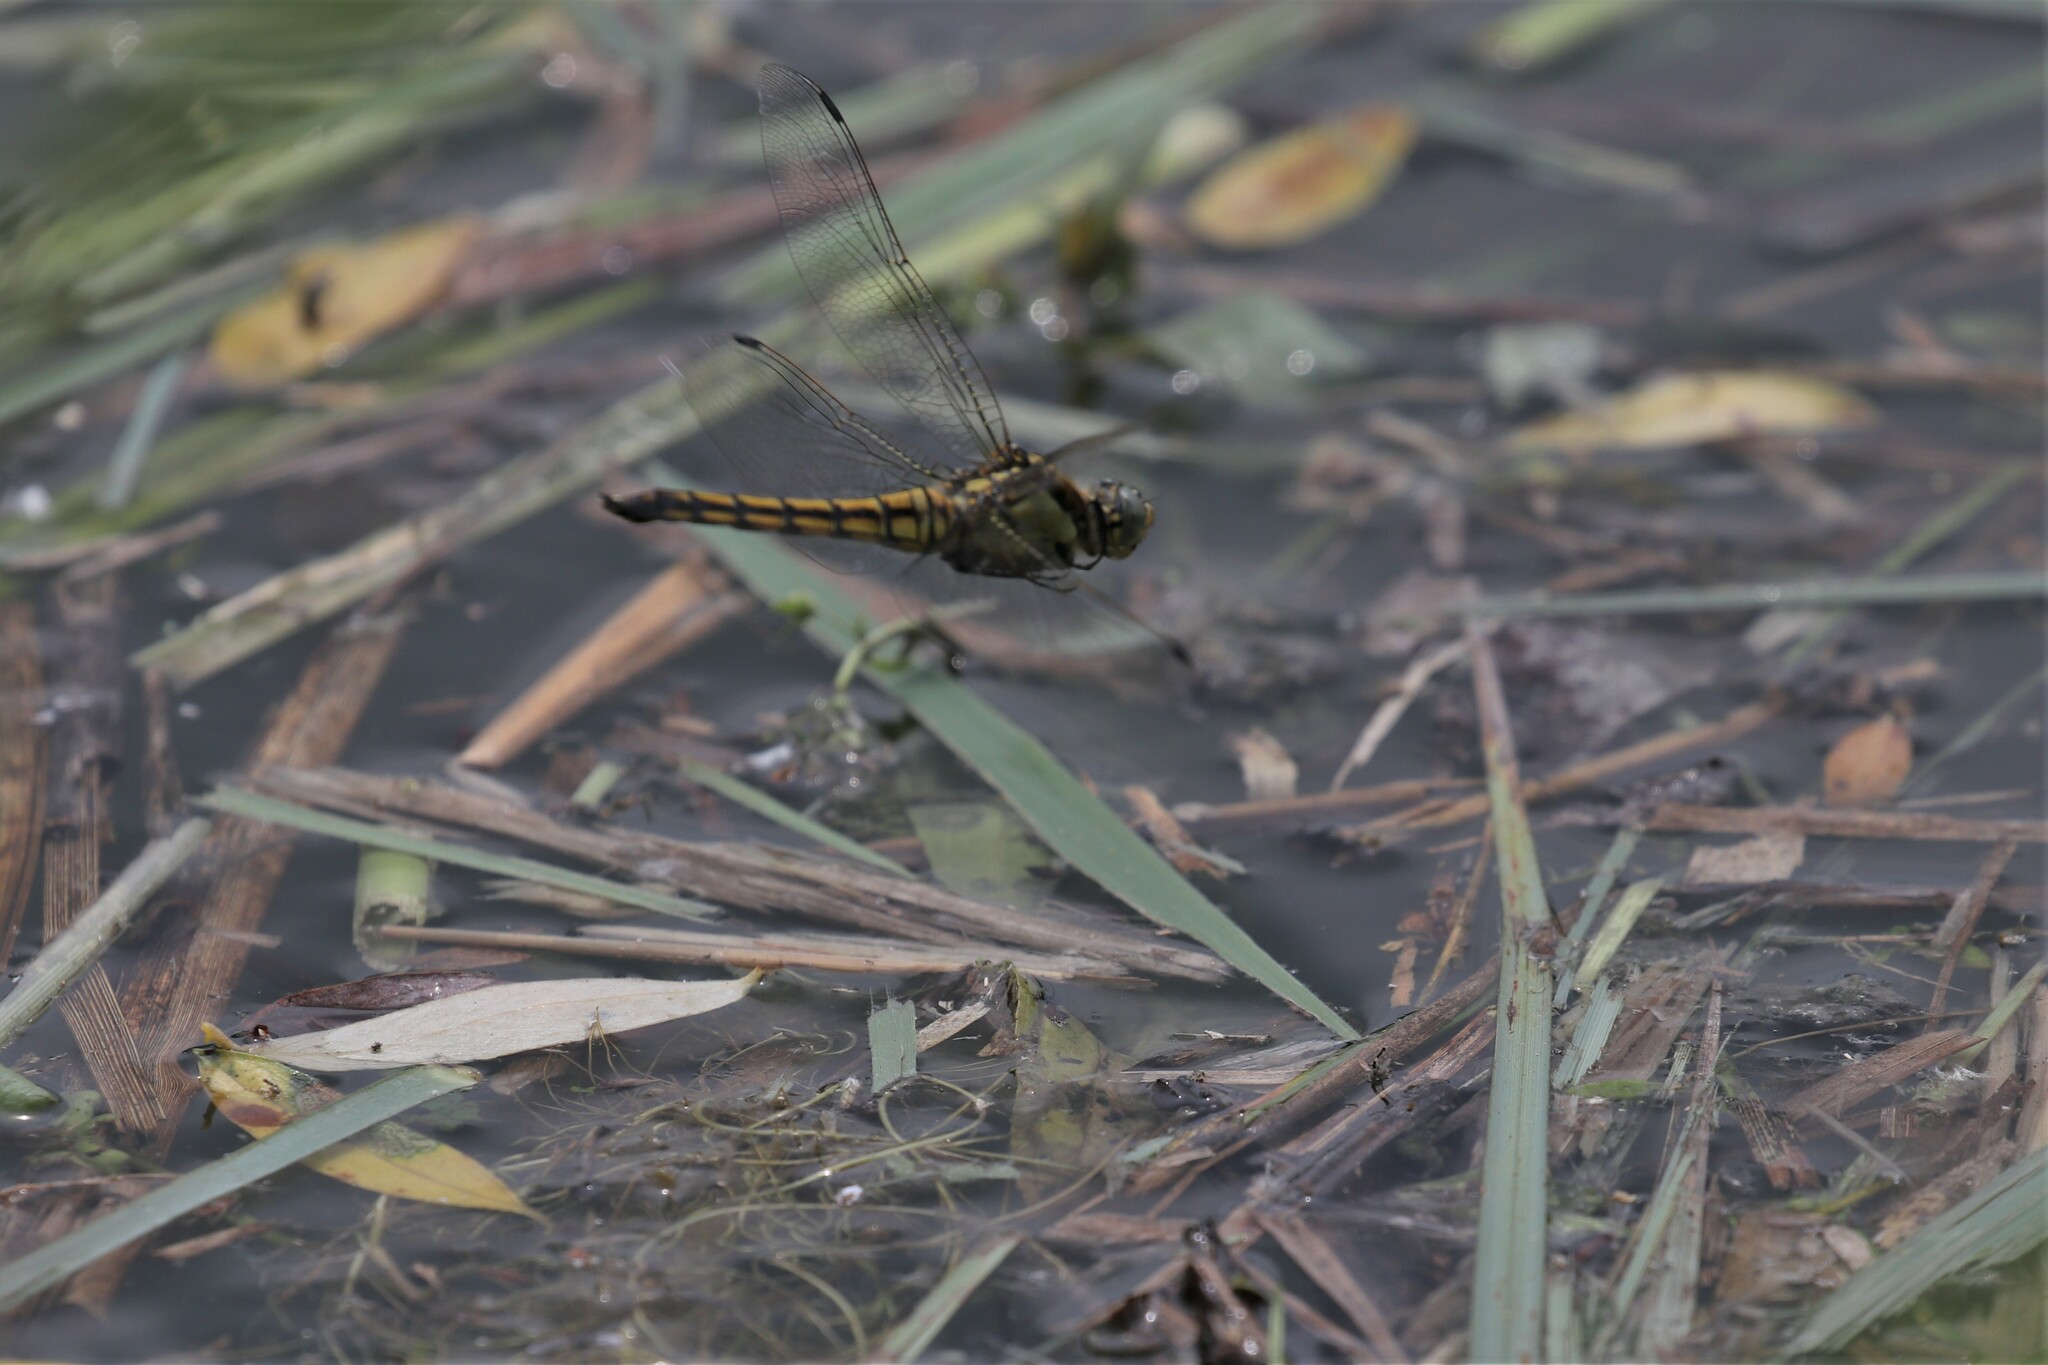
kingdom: Animalia
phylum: Arthropoda
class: Insecta
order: Odonata
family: Libellulidae
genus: Orthetrum
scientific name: Orthetrum cancellatum
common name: Black-tailed skimmer
